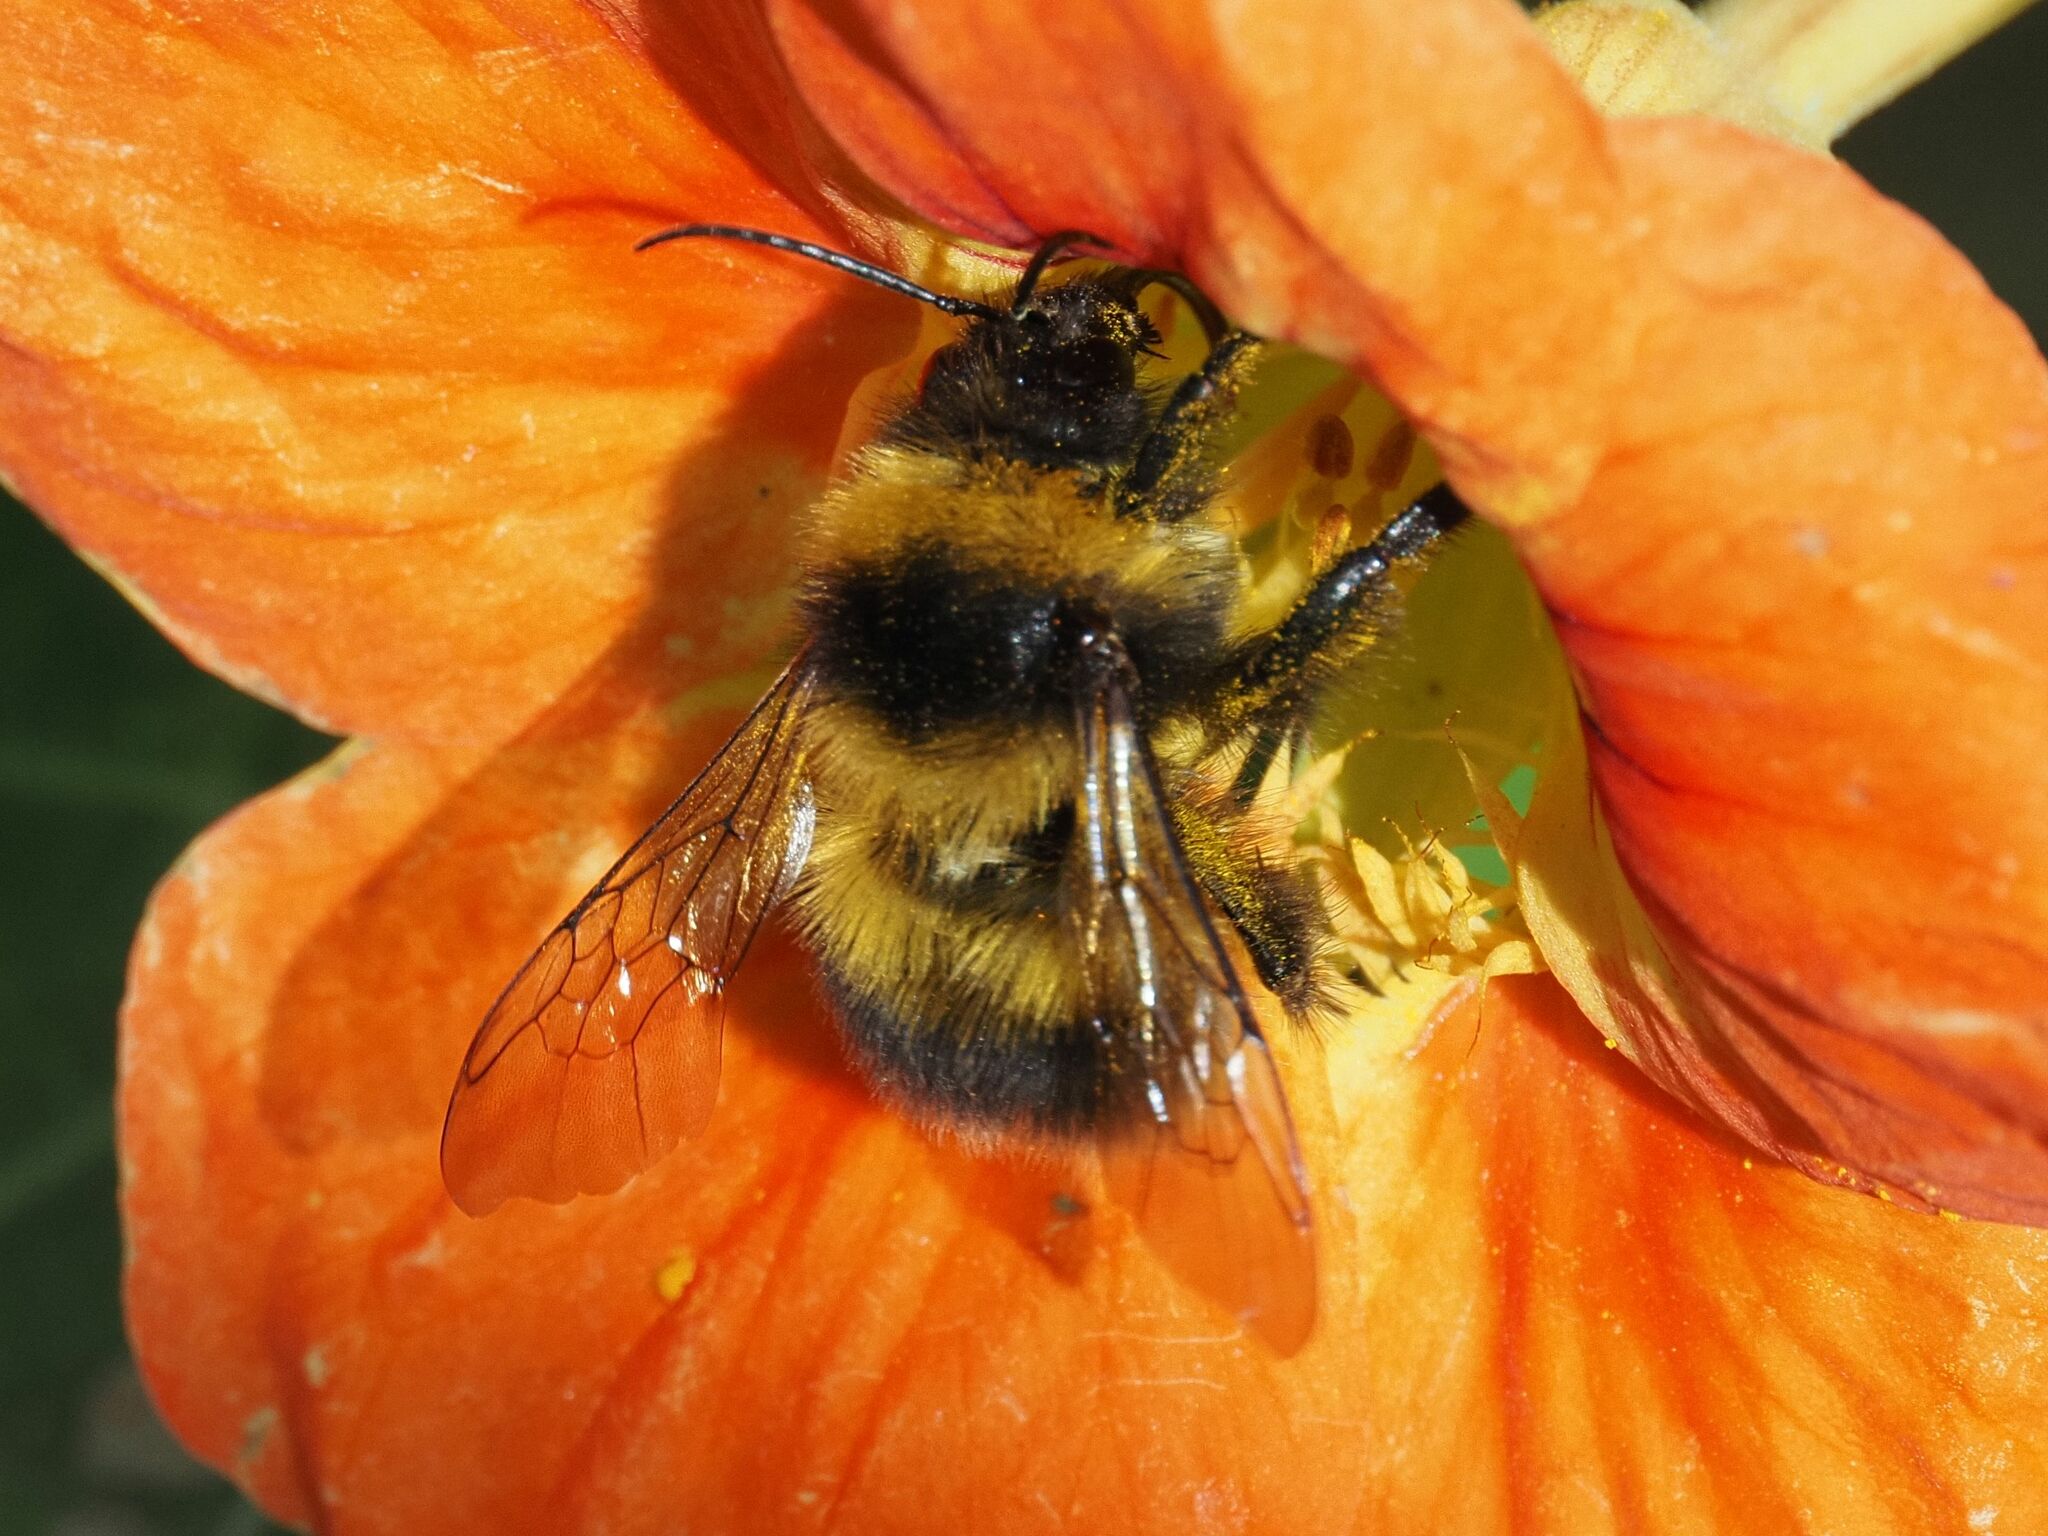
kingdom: Animalia
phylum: Arthropoda
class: Insecta
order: Hymenoptera
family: Apidae
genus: Bombus
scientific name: Bombus hortorum
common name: Garden bumblebee
